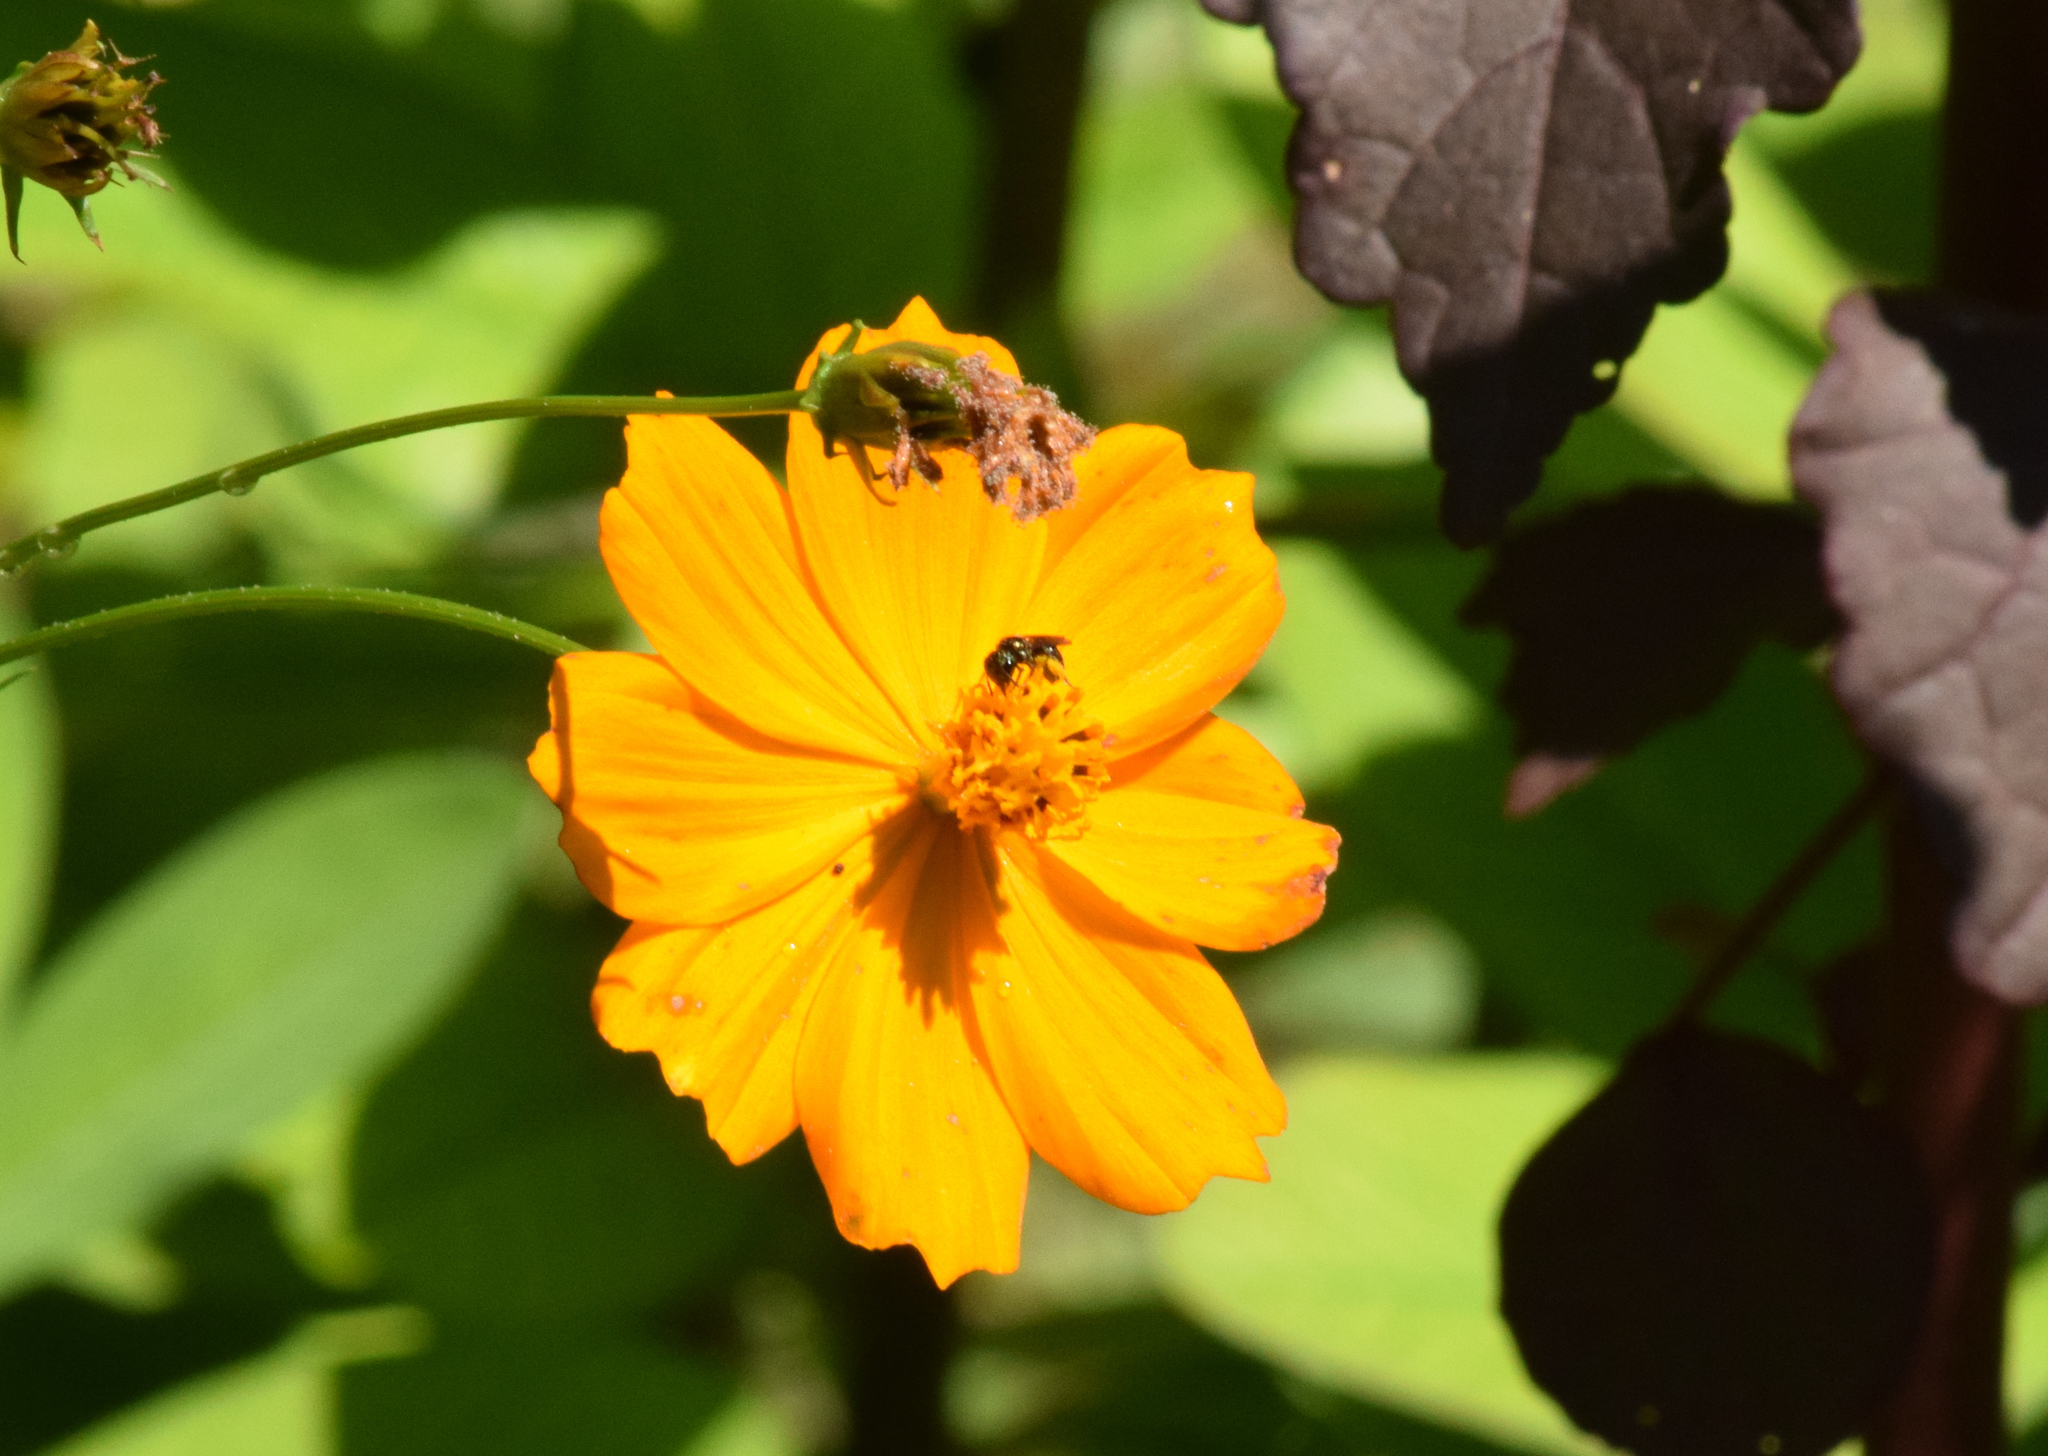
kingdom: Animalia
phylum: Arthropoda
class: Insecta
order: Hymenoptera
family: Apidae
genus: Ceratina
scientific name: Ceratina
